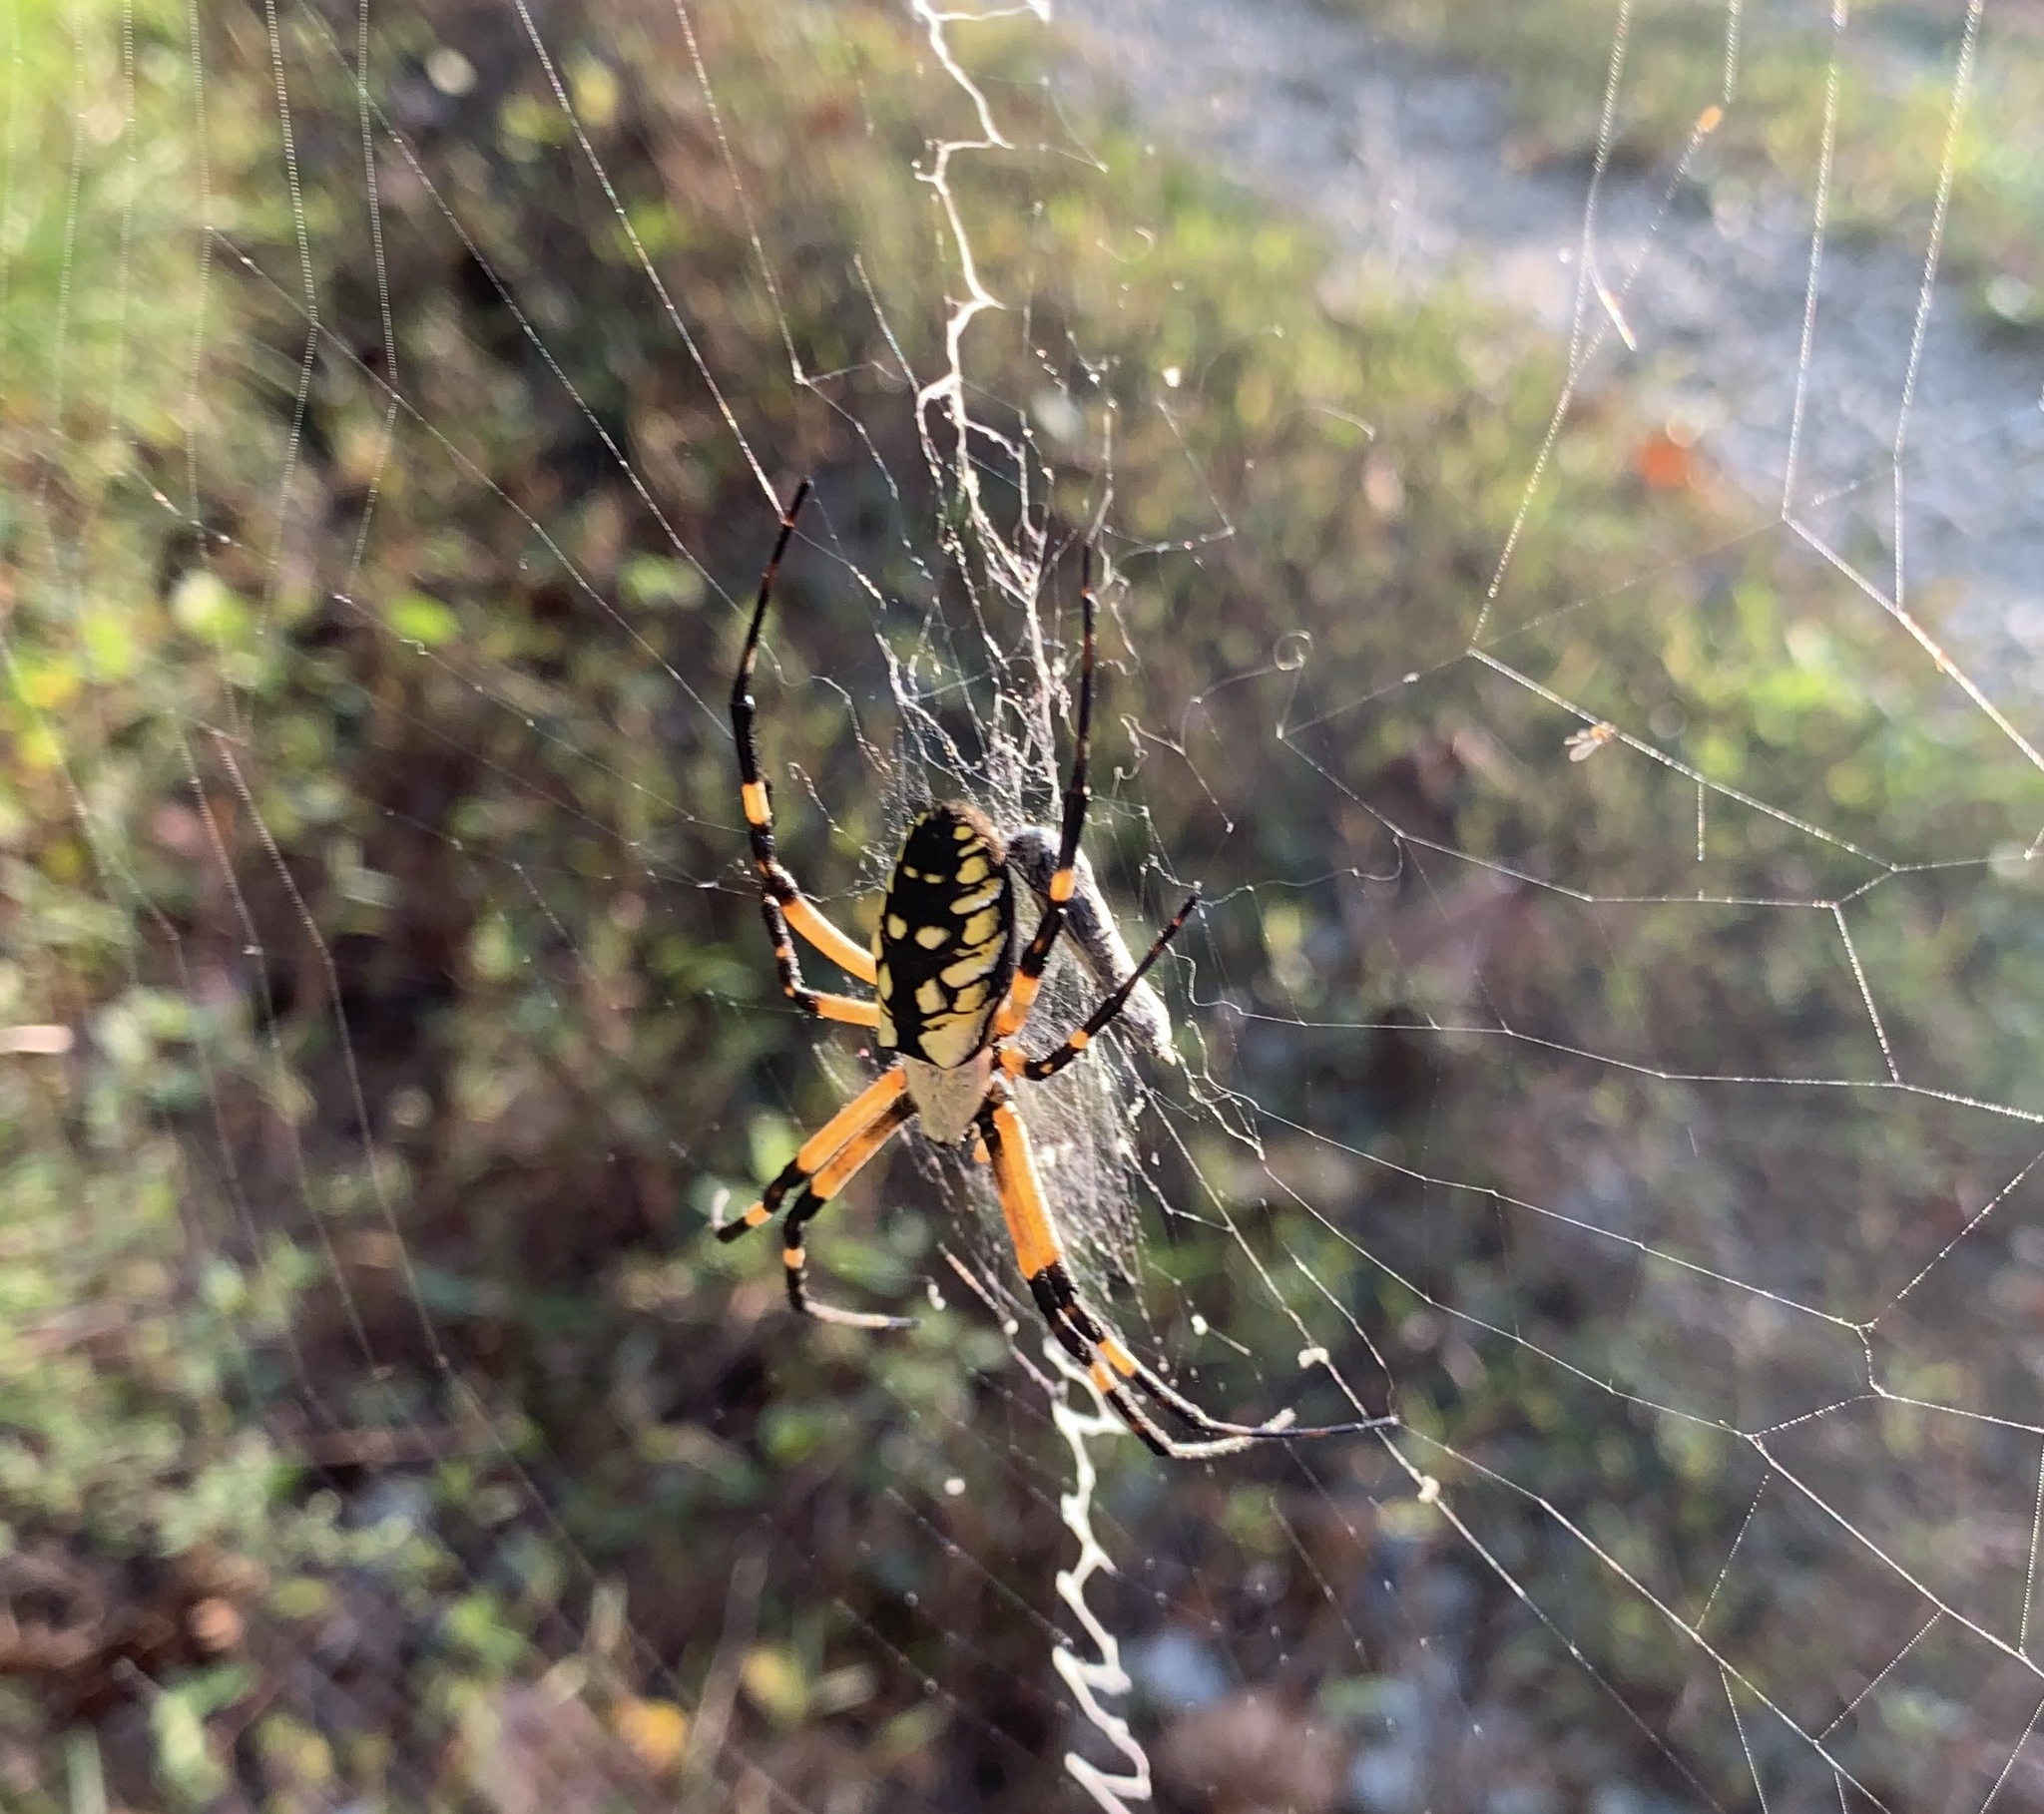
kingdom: Animalia
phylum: Arthropoda
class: Arachnida
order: Araneae
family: Araneidae
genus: Argiope
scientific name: Argiope aurantia
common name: Orb weavers
